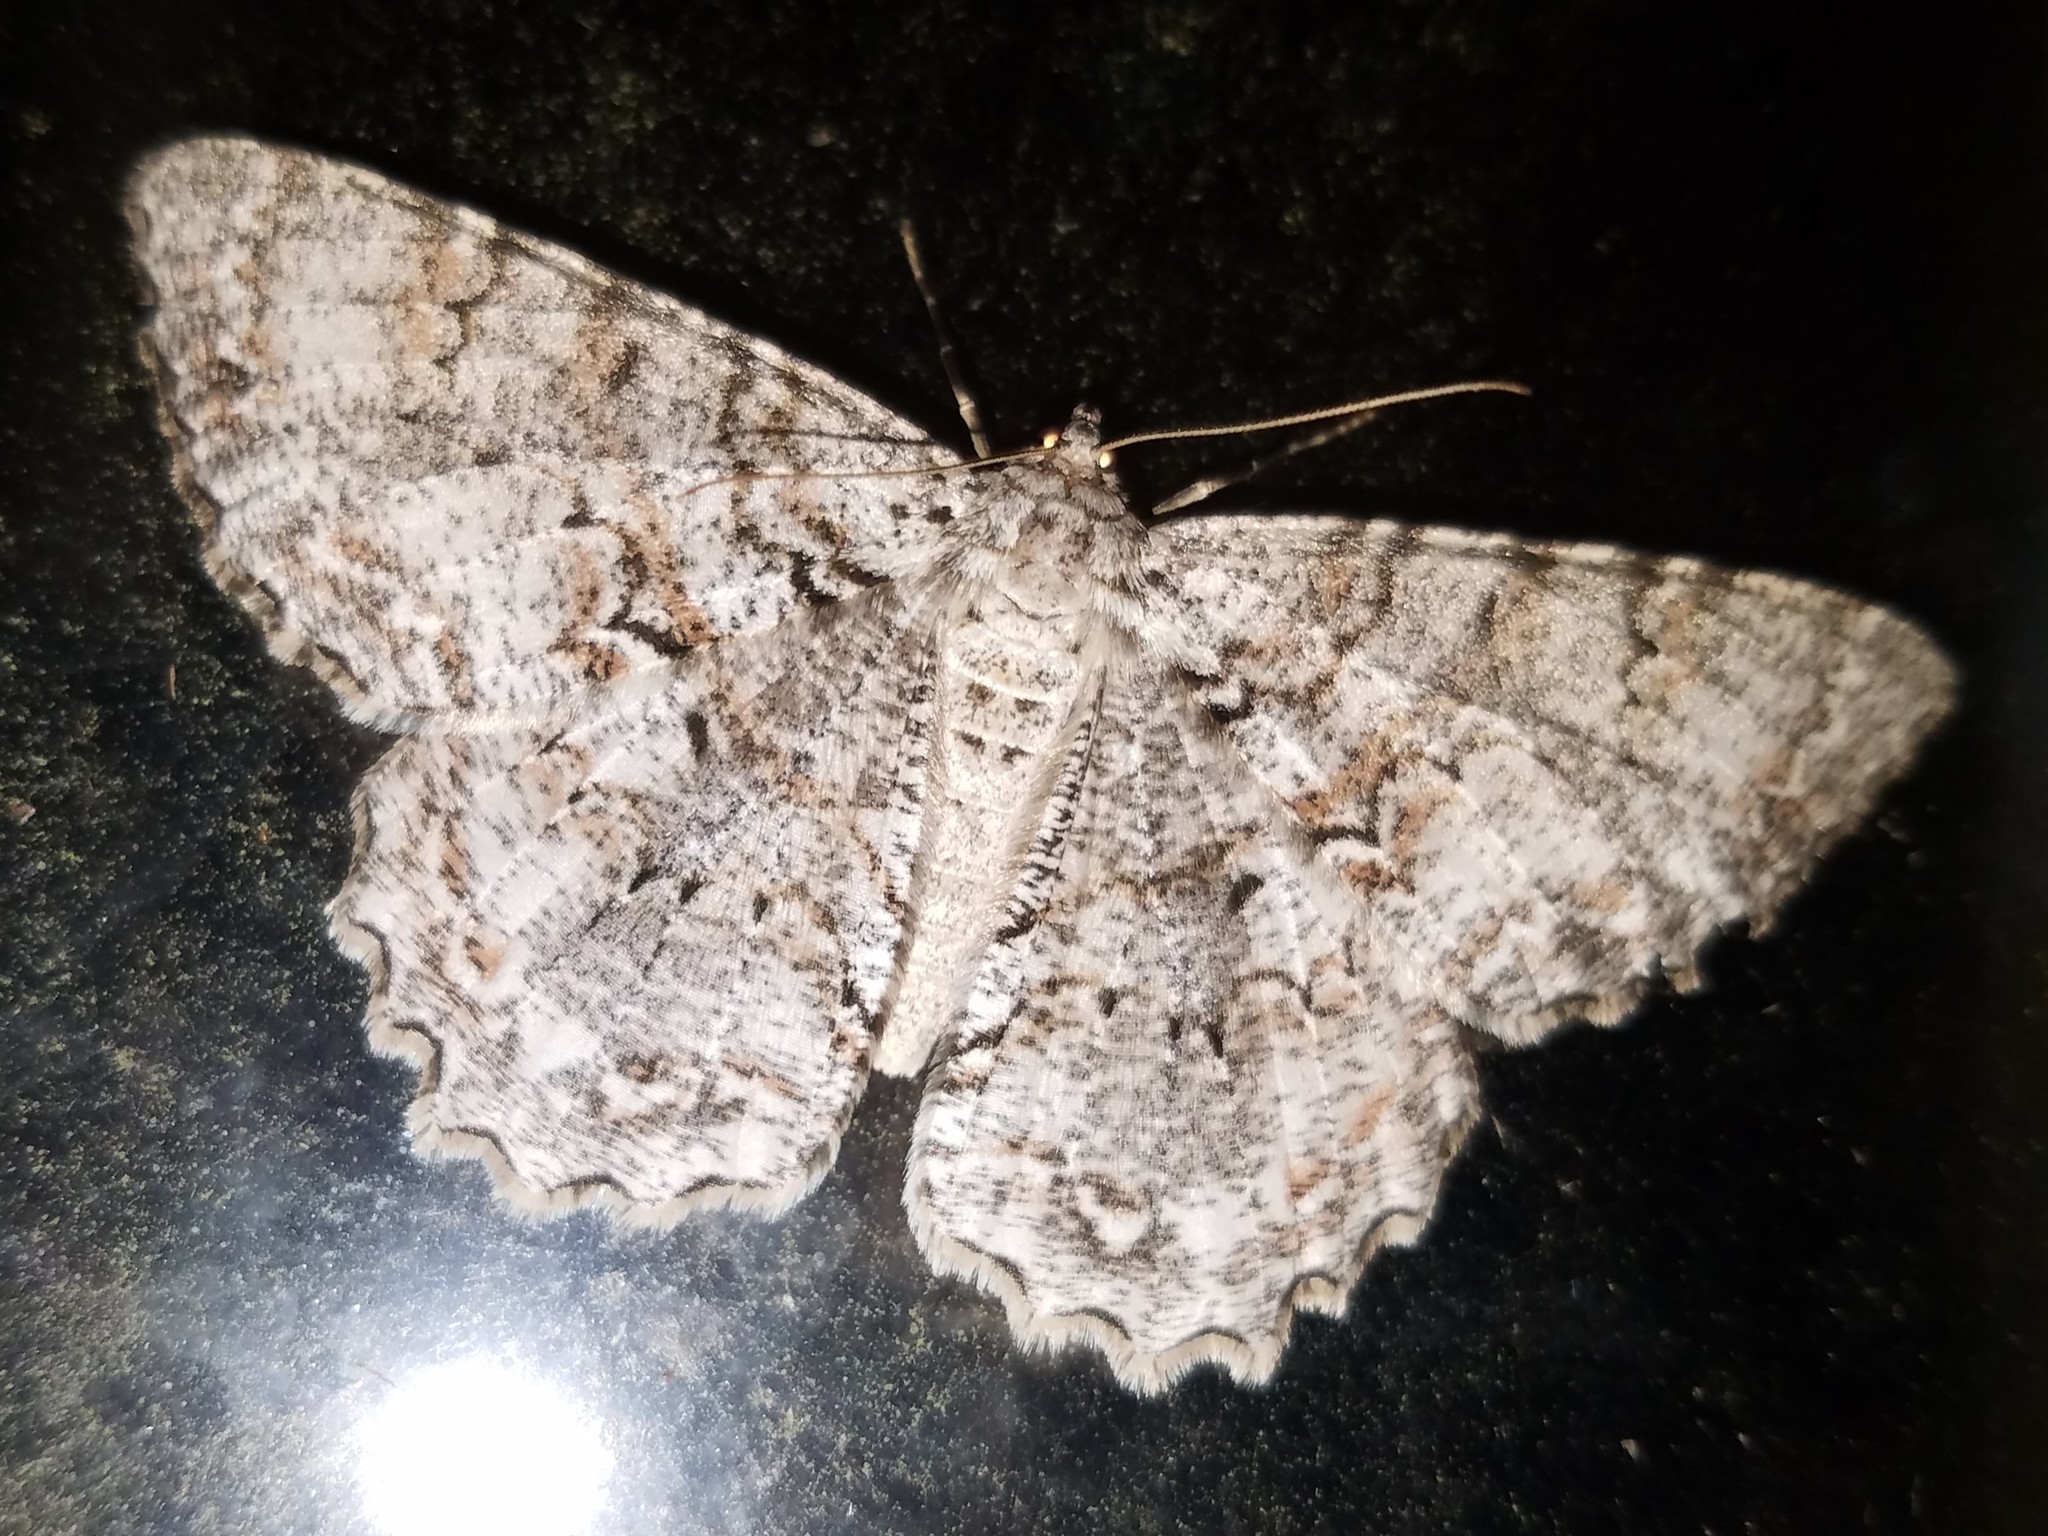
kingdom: Animalia
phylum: Arthropoda
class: Insecta
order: Lepidoptera
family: Geometridae
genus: Epimecis
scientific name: Epimecis hortaria
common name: Tulip-tree beauty
